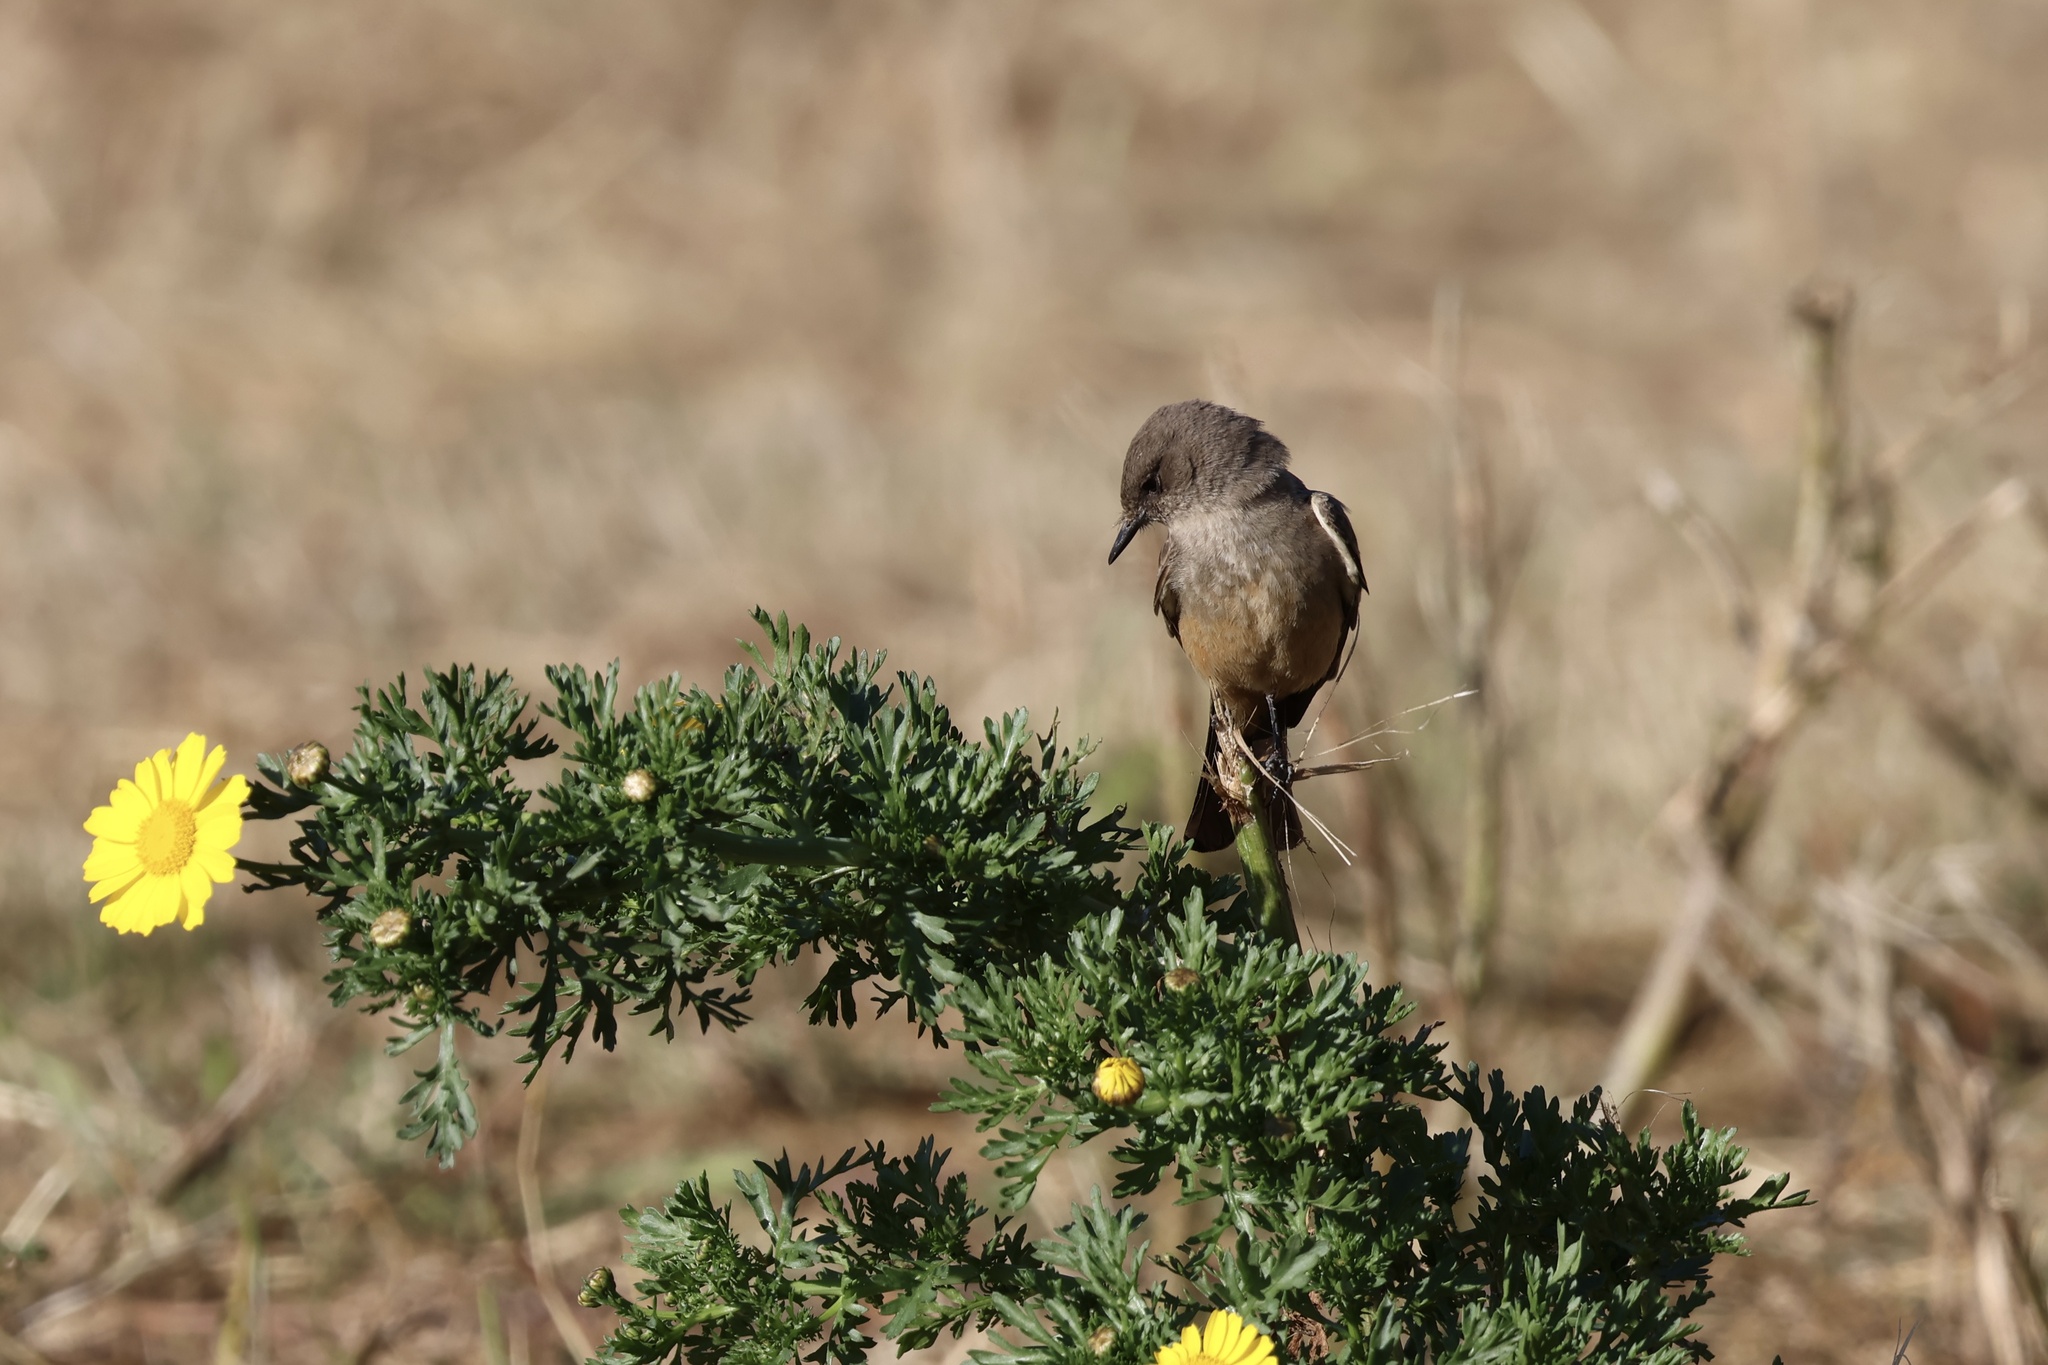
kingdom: Animalia
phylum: Chordata
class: Aves
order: Passeriformes
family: Tyrannidae
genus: Sayornis
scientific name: Sayornis saya
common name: Say's phoebe
